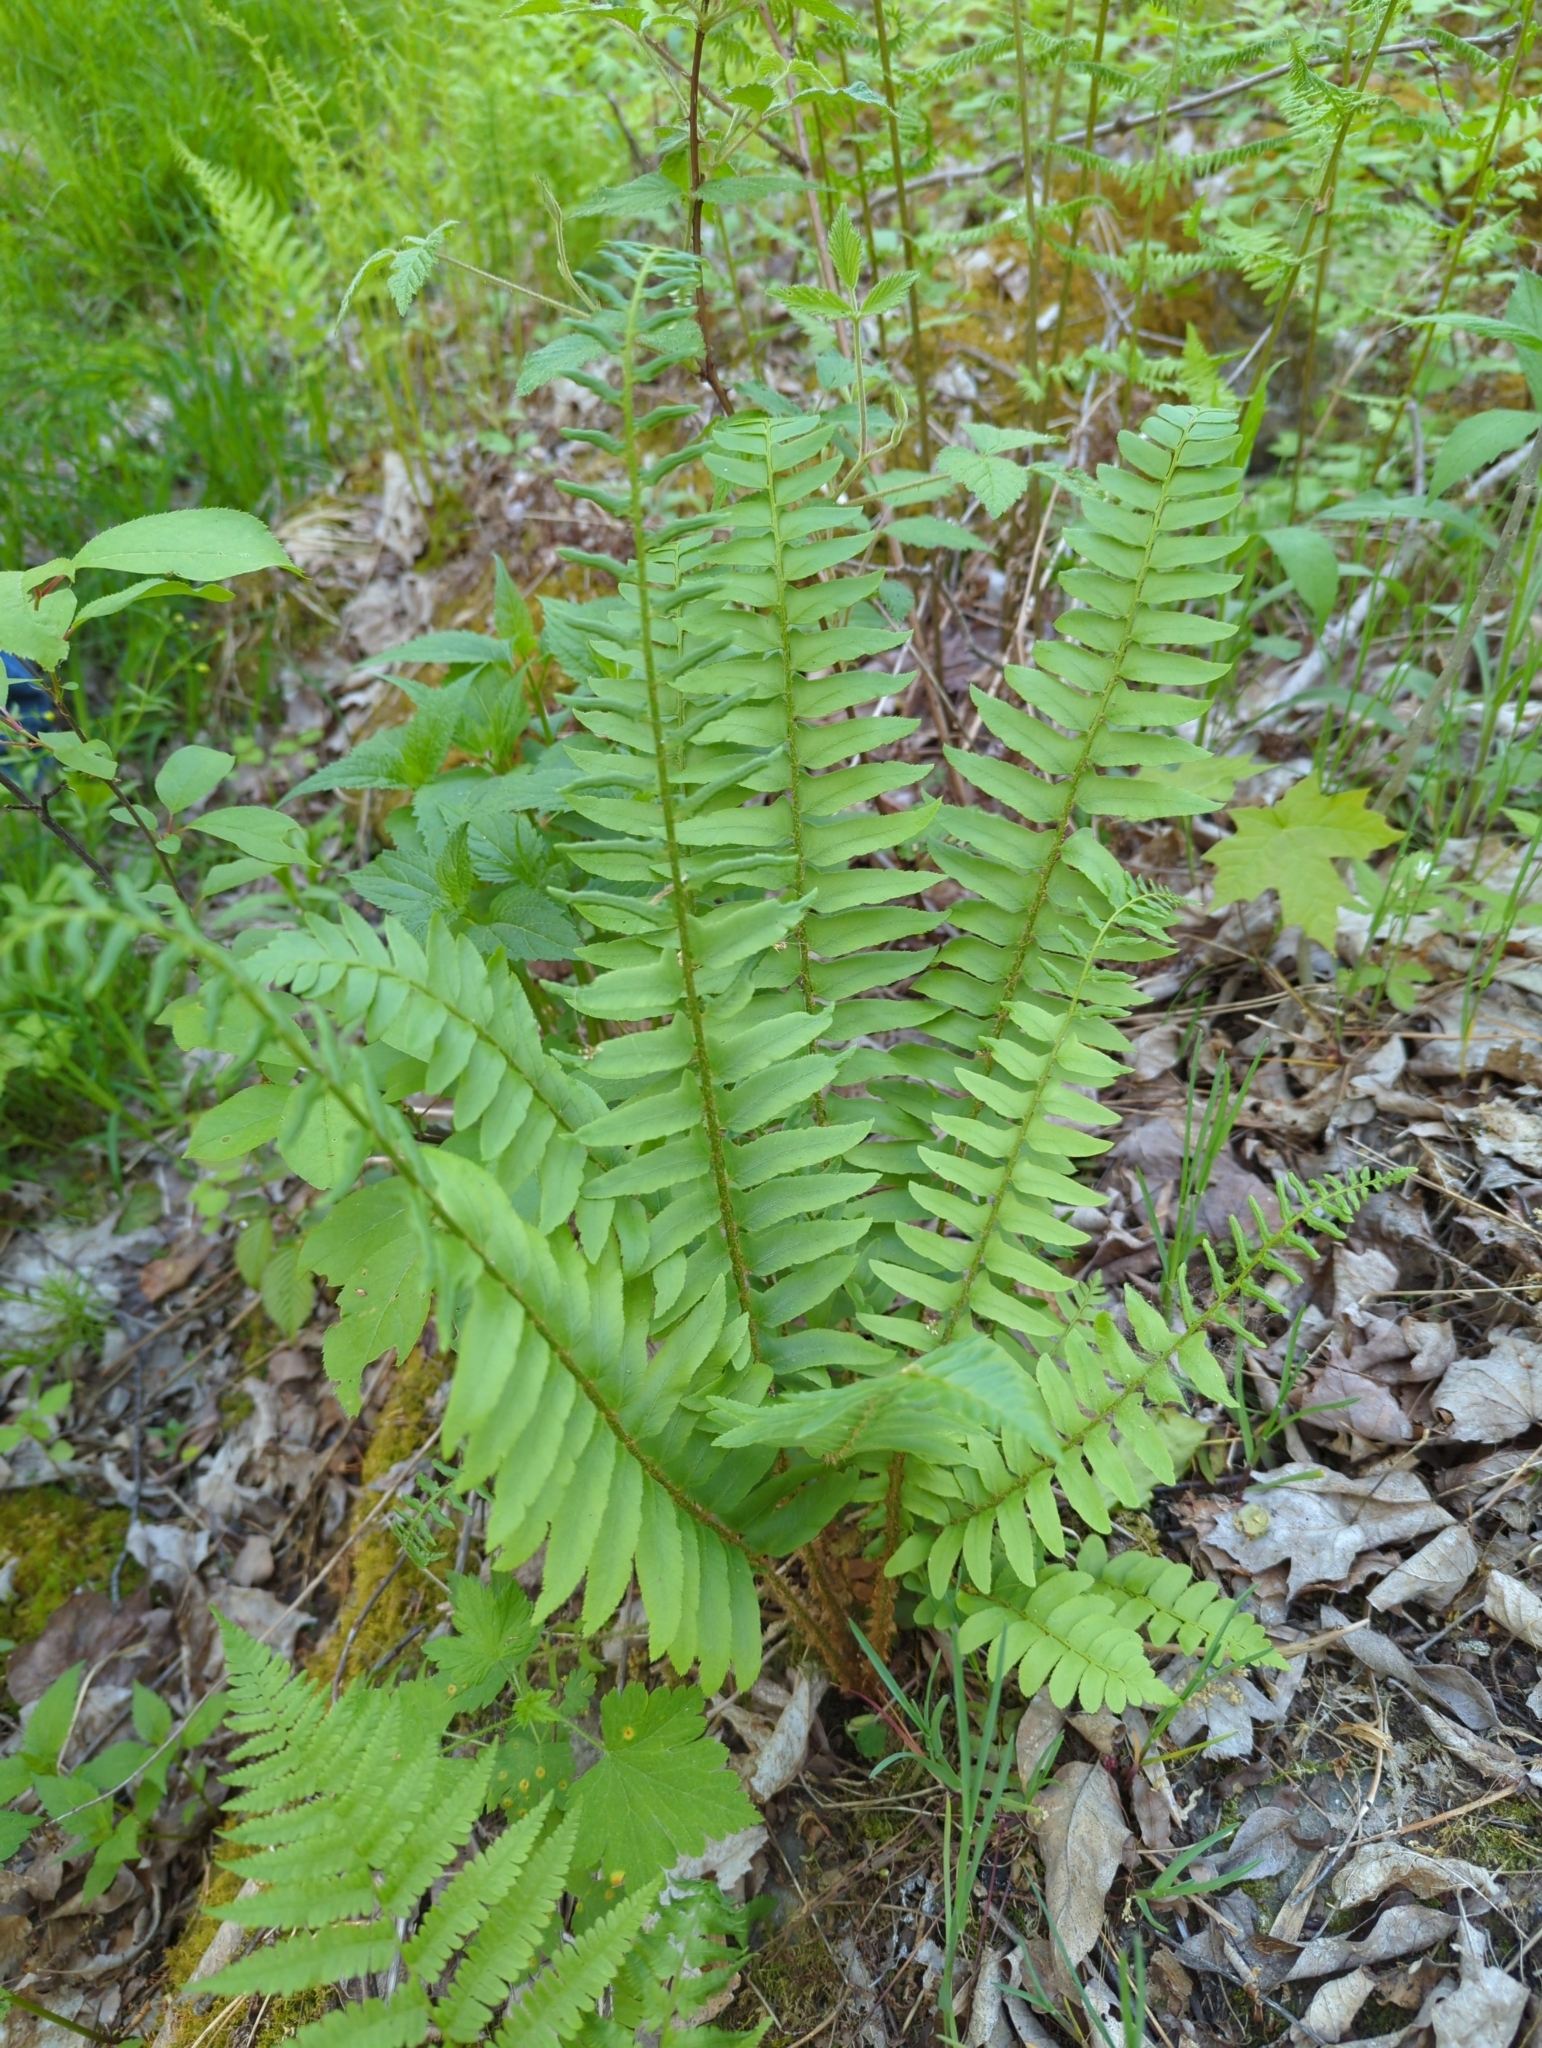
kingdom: Plantae
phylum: Tracheophyta
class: Polypodiopsida
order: Polypodiales
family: Dryopteridaceae
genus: Polystichum
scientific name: Polystichum acrostichoides
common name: Christmas fern
